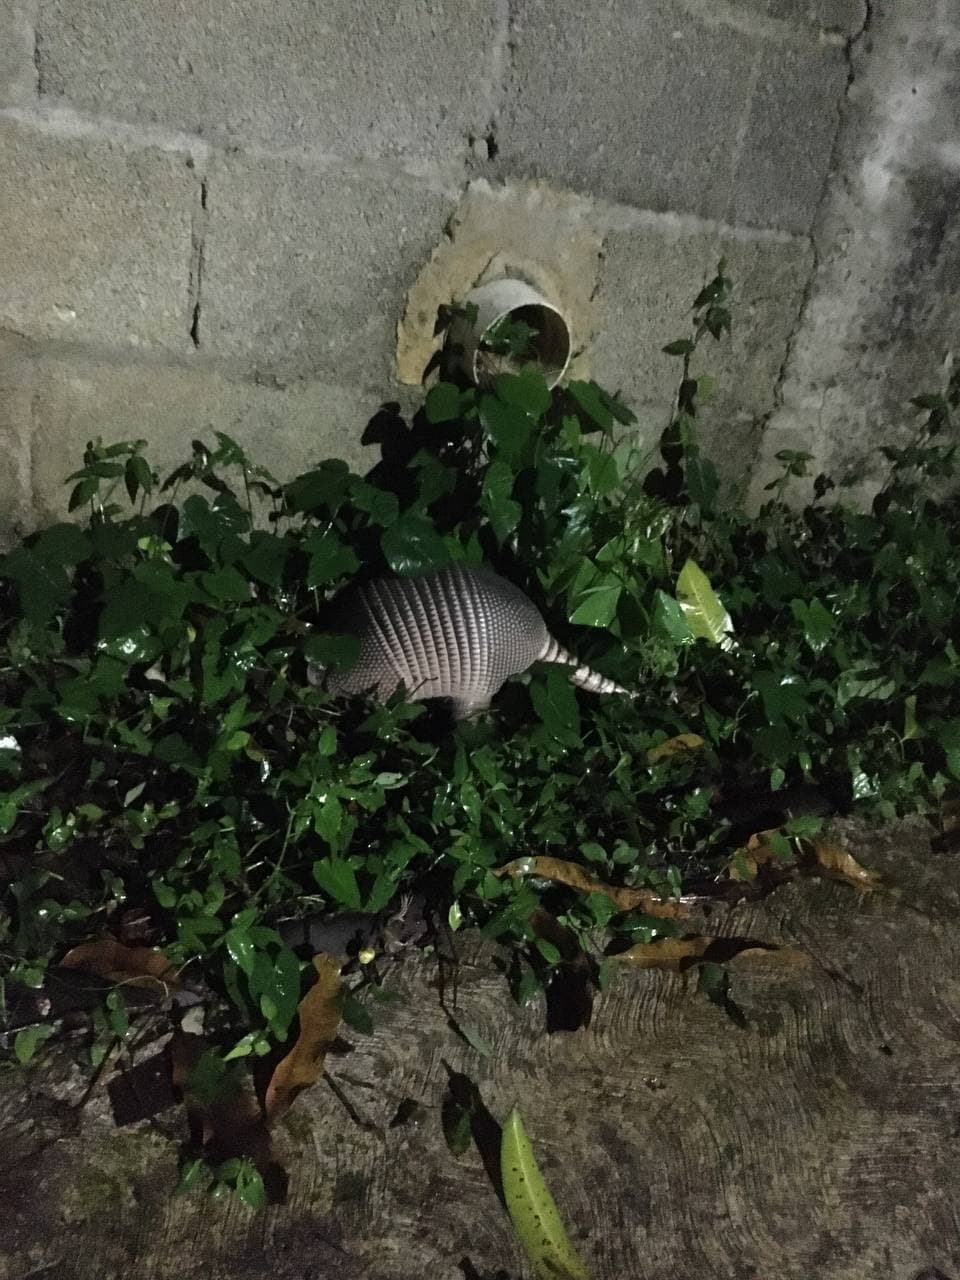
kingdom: Animalia
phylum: Chordata
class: Mammalia
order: Cingulata
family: Dasypodidae
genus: Dasypus
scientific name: Dasypus novemcinctus
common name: Nine-banded armadillo
